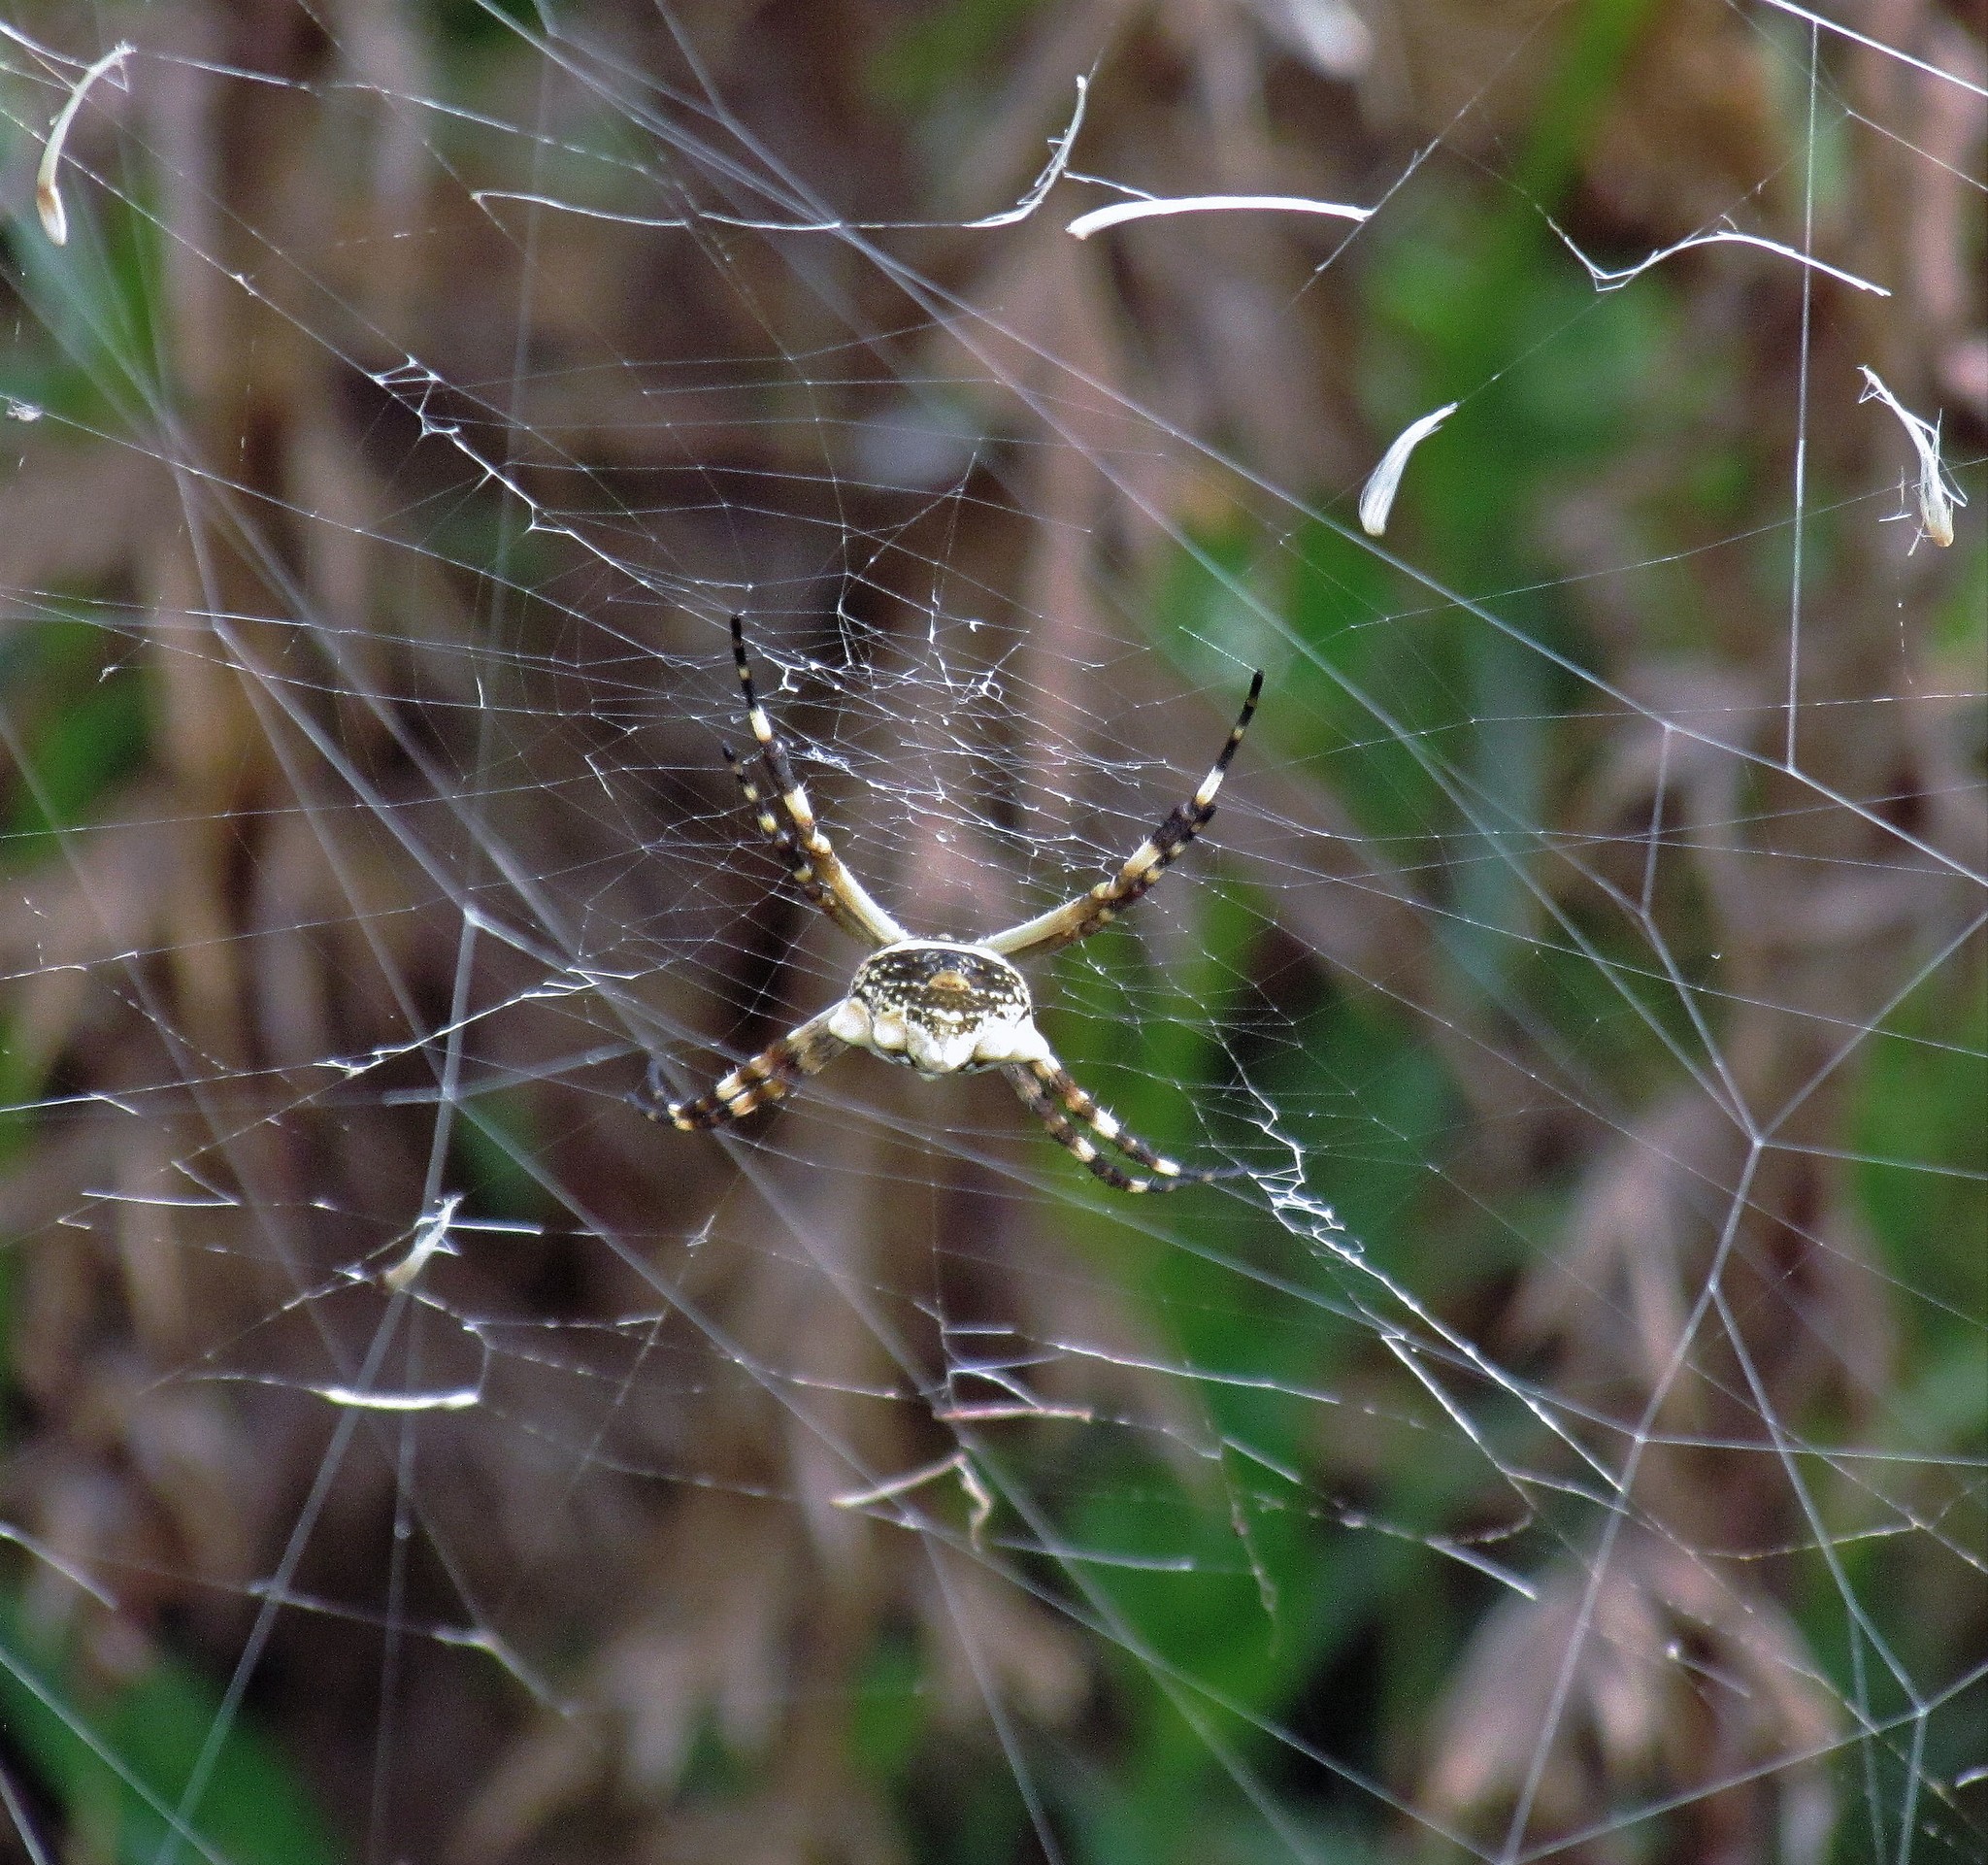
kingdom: Animalia
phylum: Arthropoda
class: Arachnida
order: Araneae
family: Araneidae
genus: Argiope
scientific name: Argiope argentata
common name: Orb weavers
